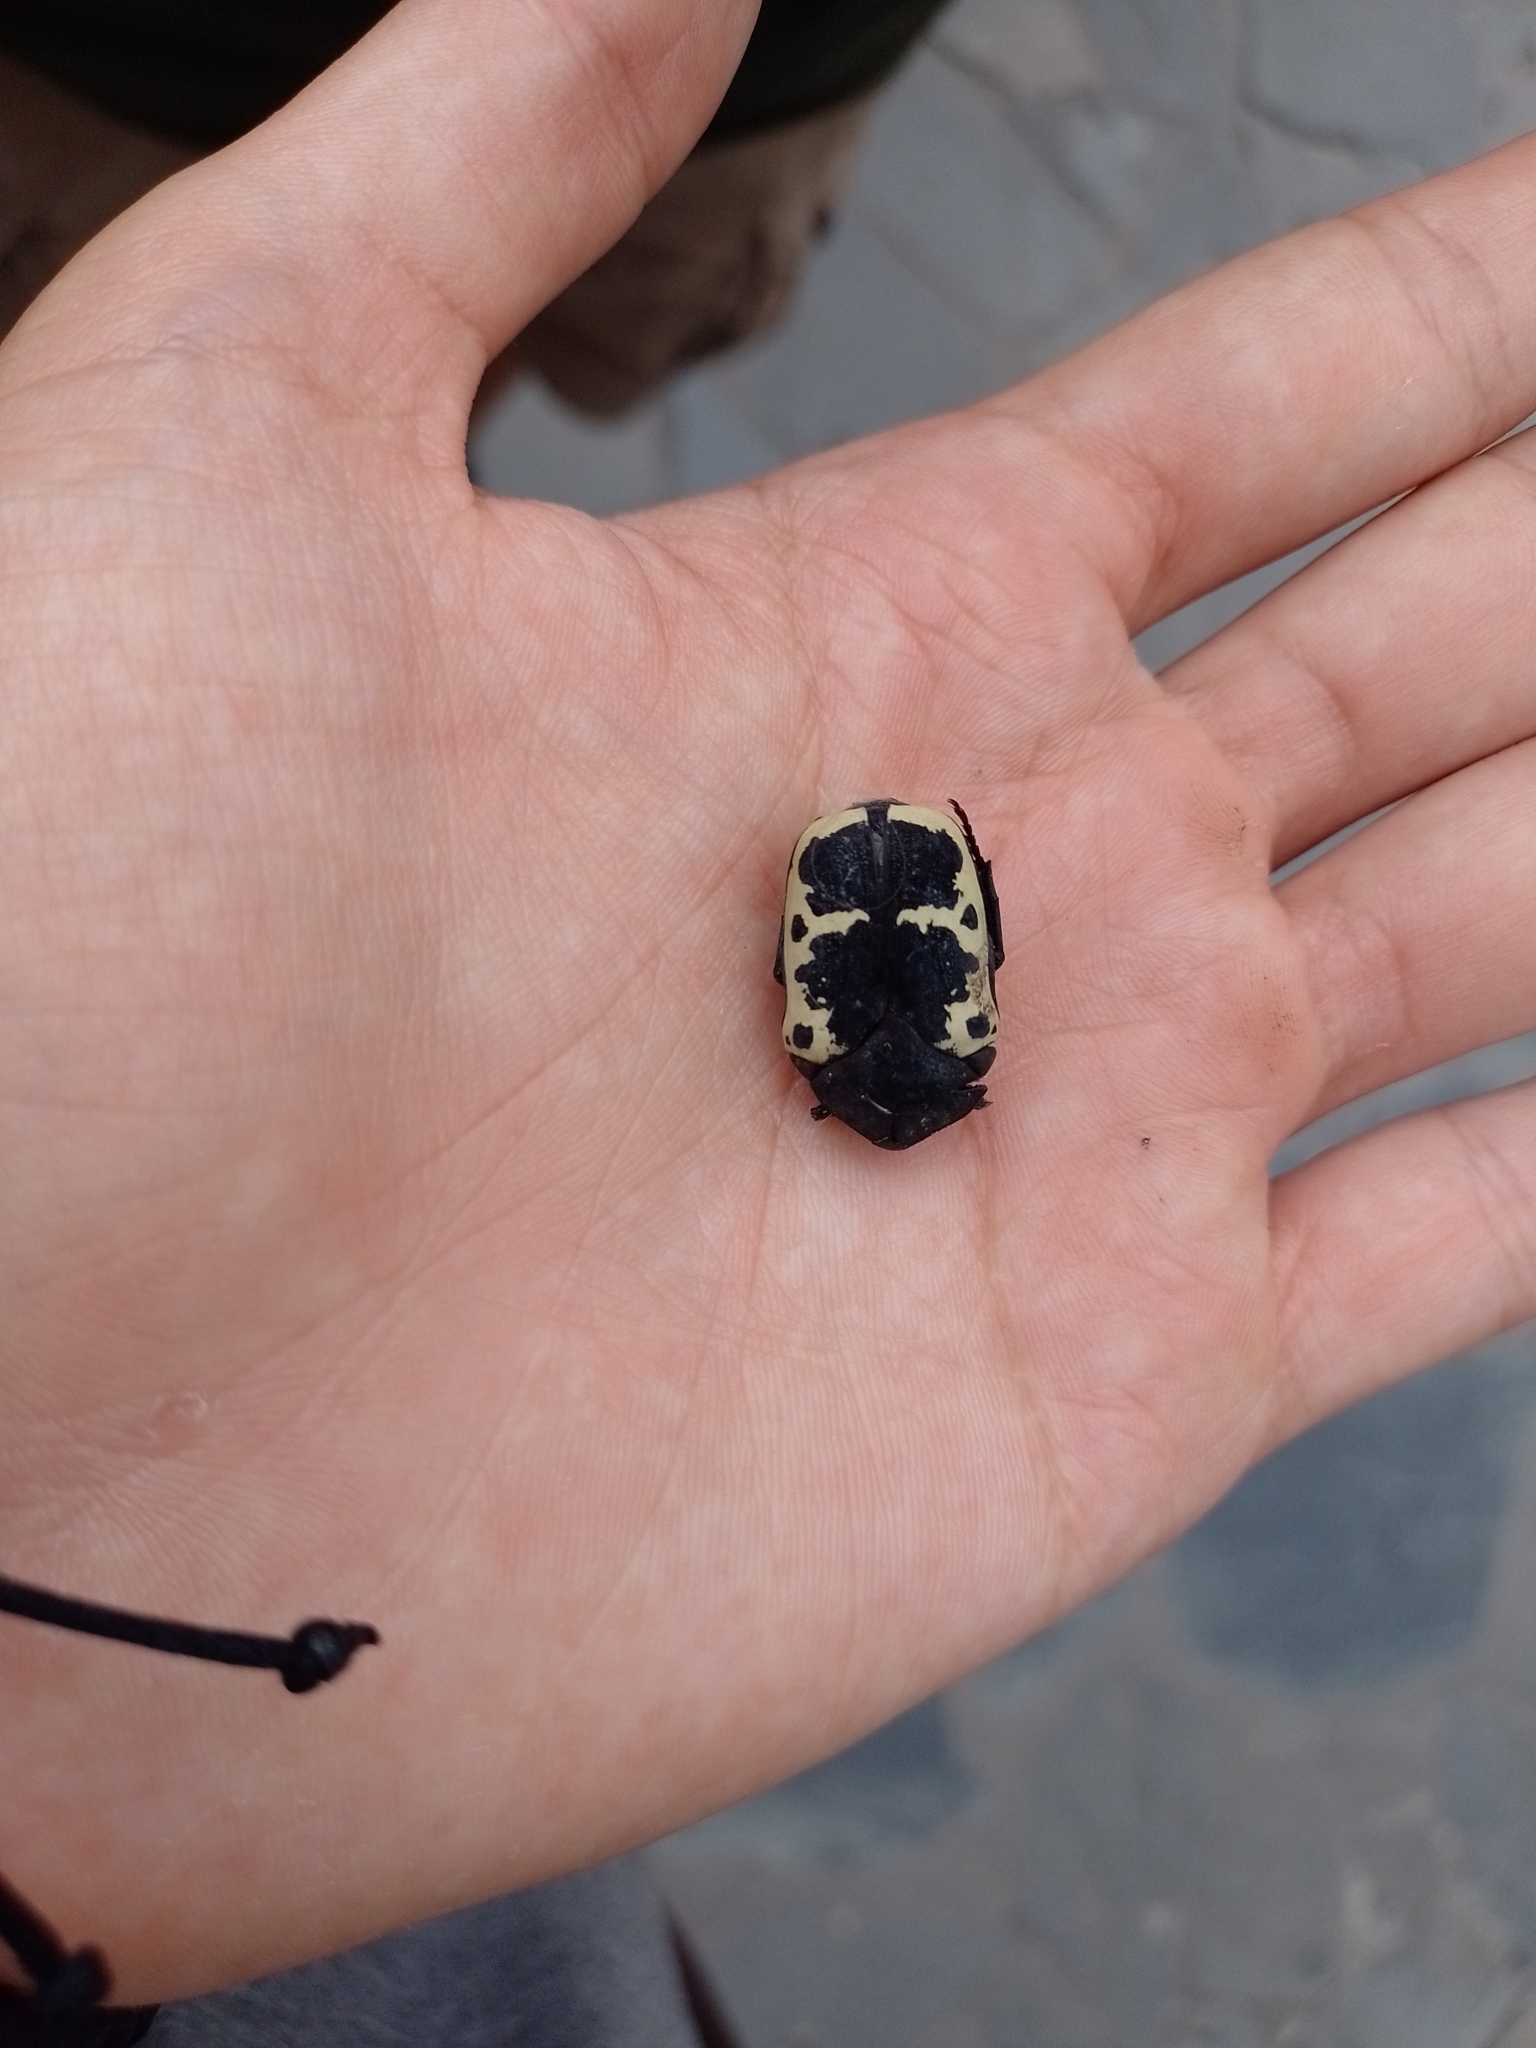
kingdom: Animalia
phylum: Arthropoda
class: Insecta
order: Coleoptera
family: Scarabaeidae
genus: Gymnetis
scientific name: Gymnetis pudibunda
